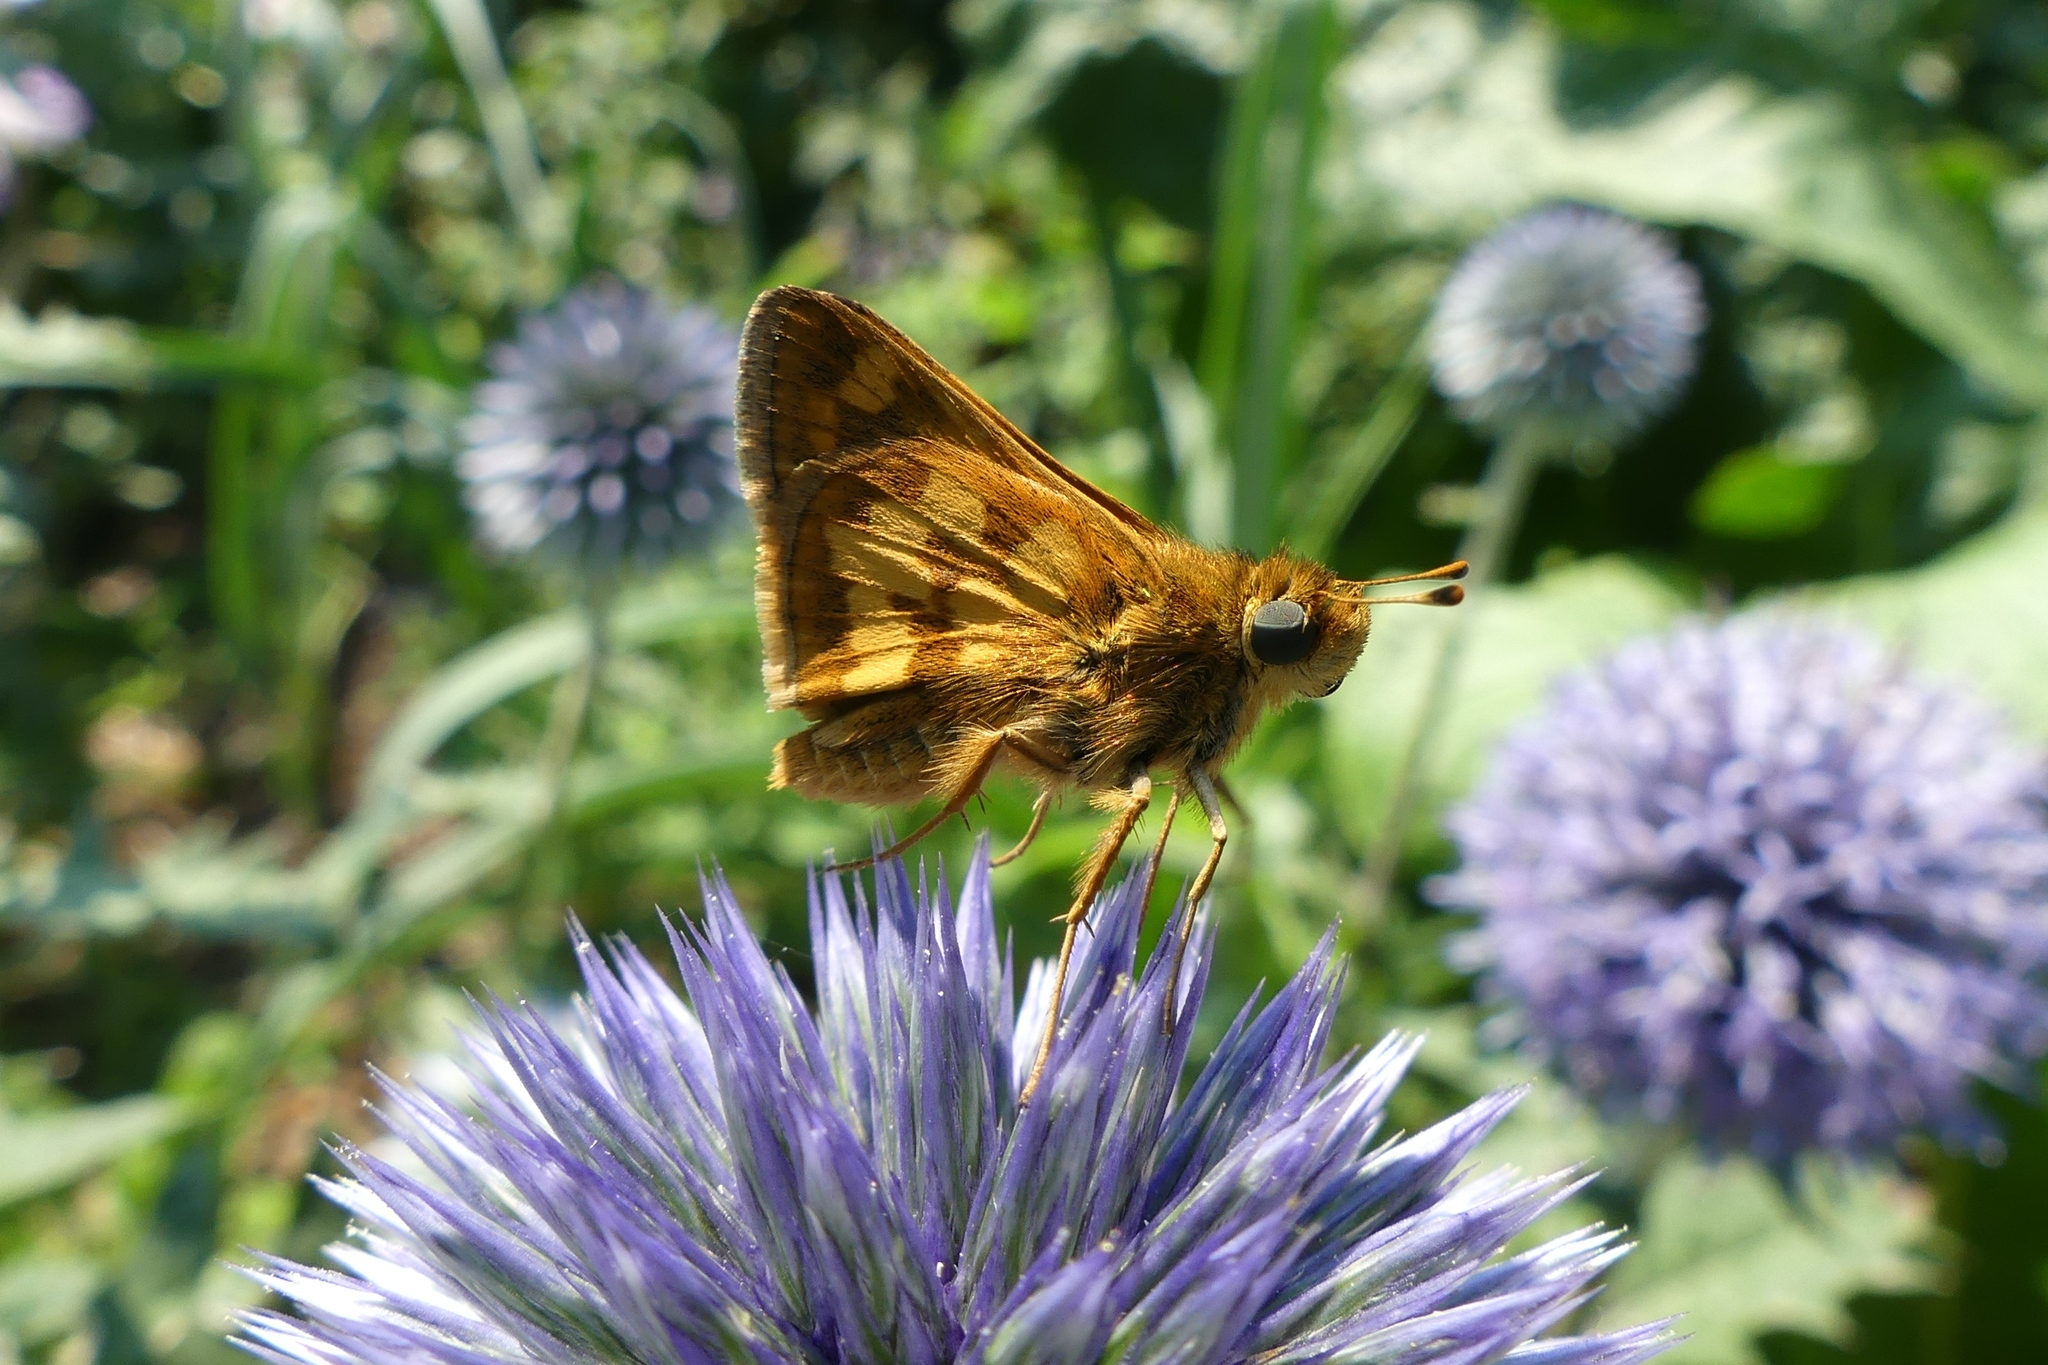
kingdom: Animalia
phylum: Arthropoda
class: Insecta
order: Lepidoptera
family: Hesperiidae
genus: Polites
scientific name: Polites coras
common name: Peck's skipper
